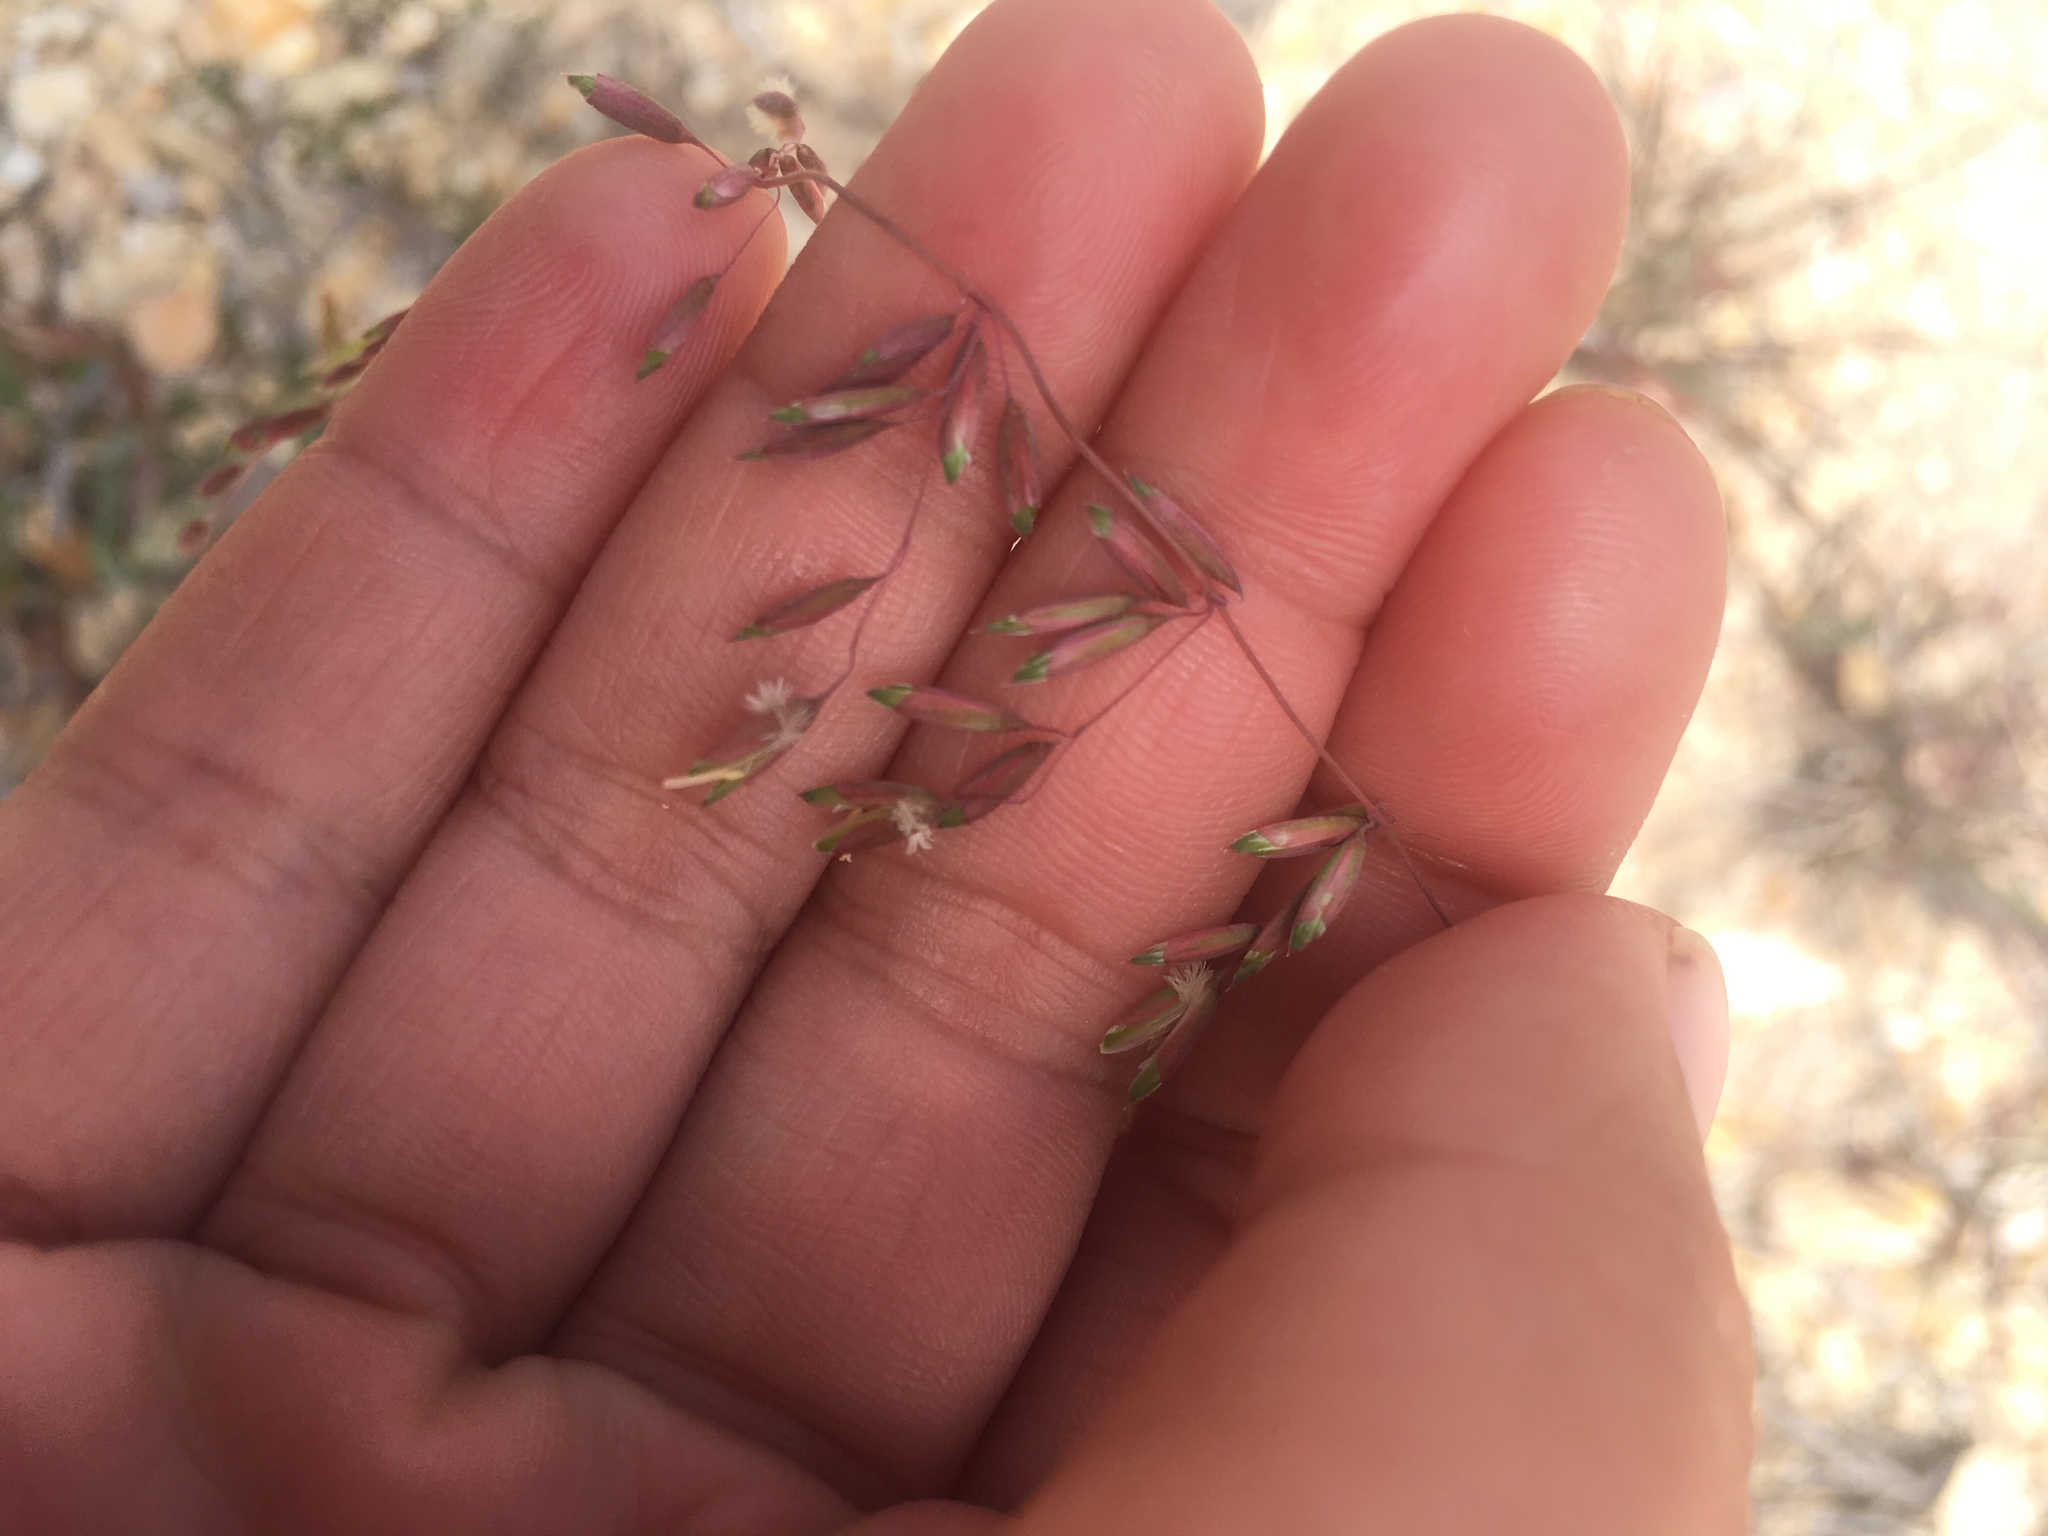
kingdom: Plantae
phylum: Tracheophyta
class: Liliopsida
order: Poales
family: Poaceae
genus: Ehrharta
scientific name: Ehrharta calycina
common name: Perennial veldtgrass
